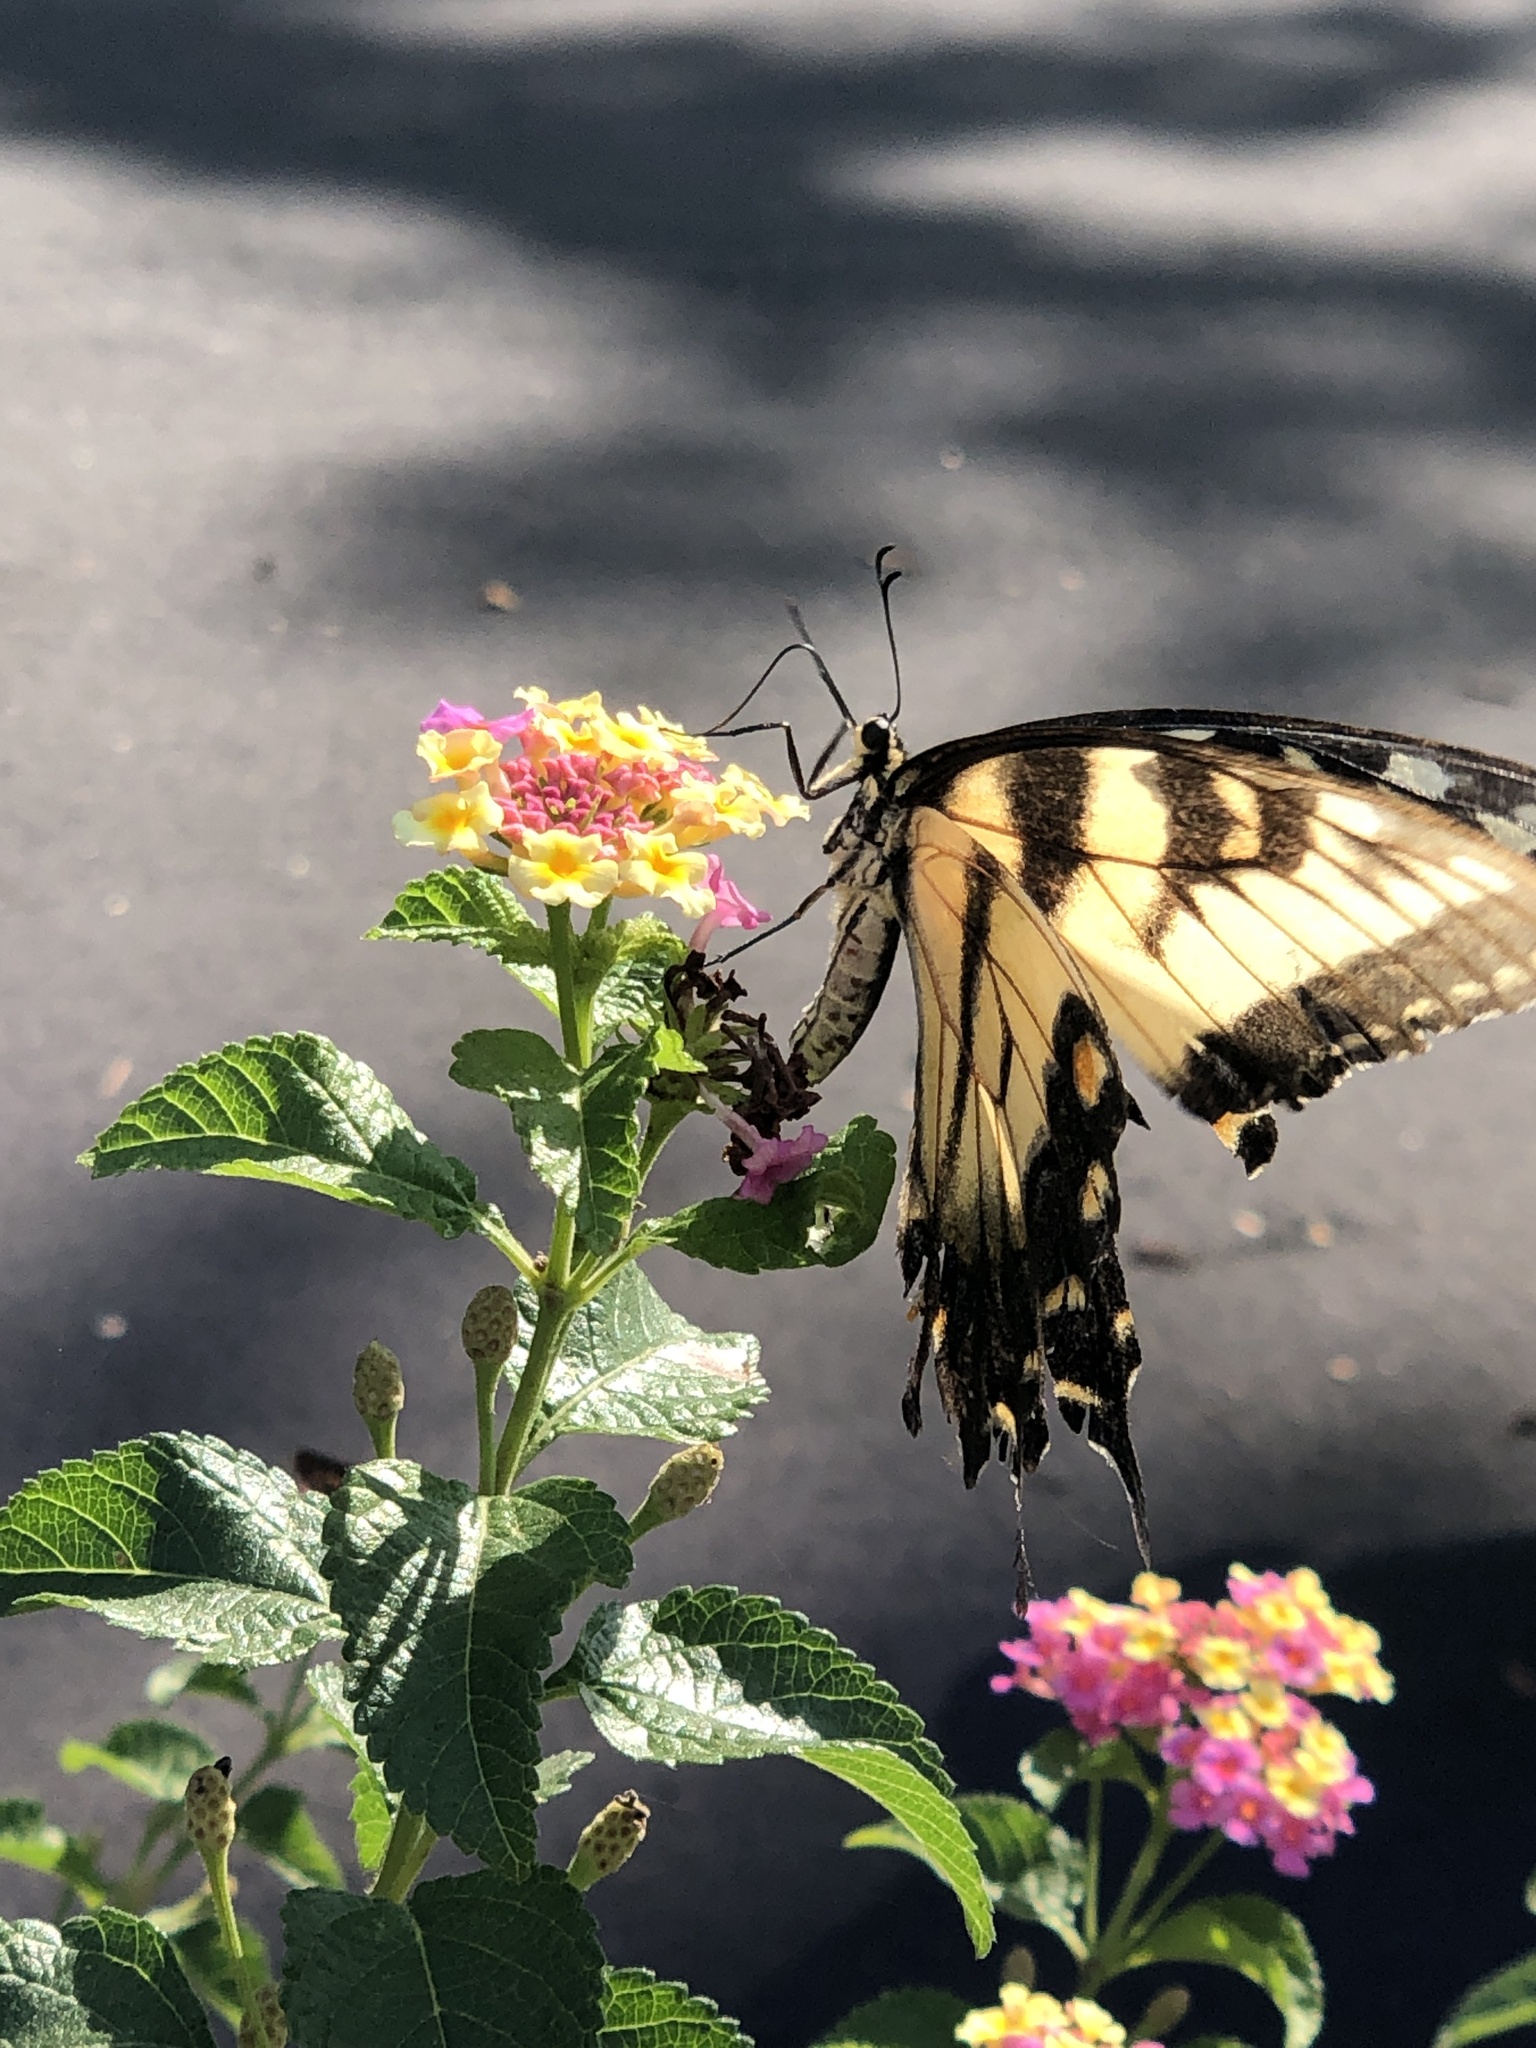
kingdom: Animalia
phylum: Arthropoda
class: Insecta
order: Lepidoptera
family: Papilionidae
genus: Papilio
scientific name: Papilio glaucus
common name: Tiger swallowtail
